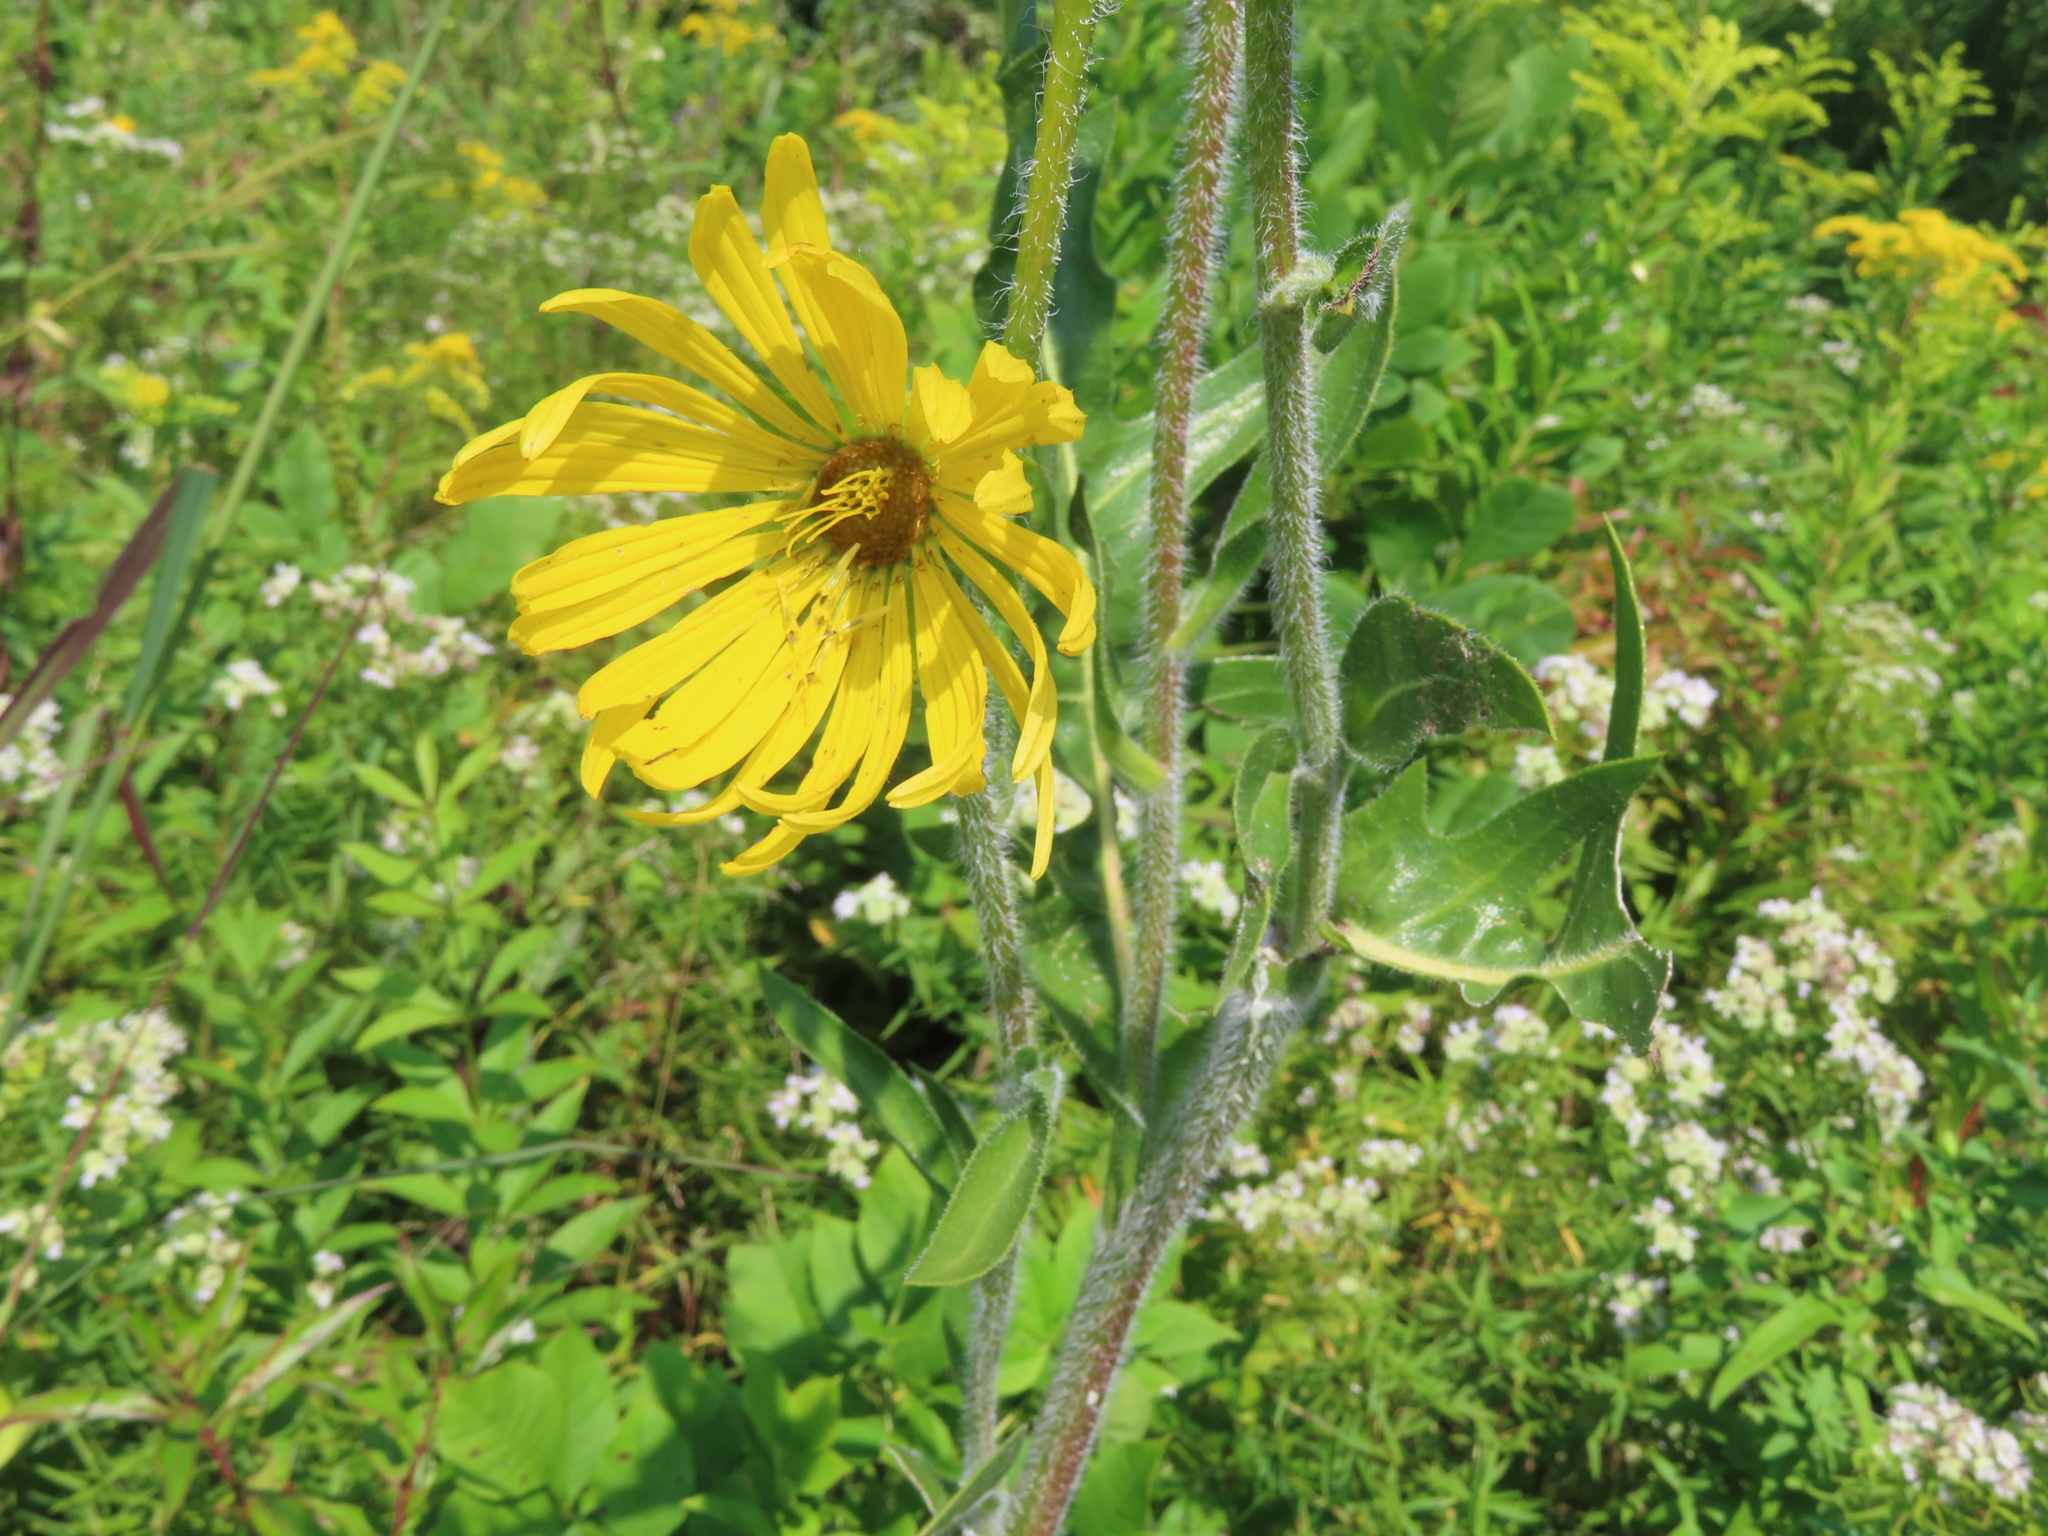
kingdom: Plantae
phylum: Tracheophyta
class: Magnoliopsida
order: Asterales
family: Asteraceae
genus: Silphium
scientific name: Silphium laciniatum
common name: Polarplant
